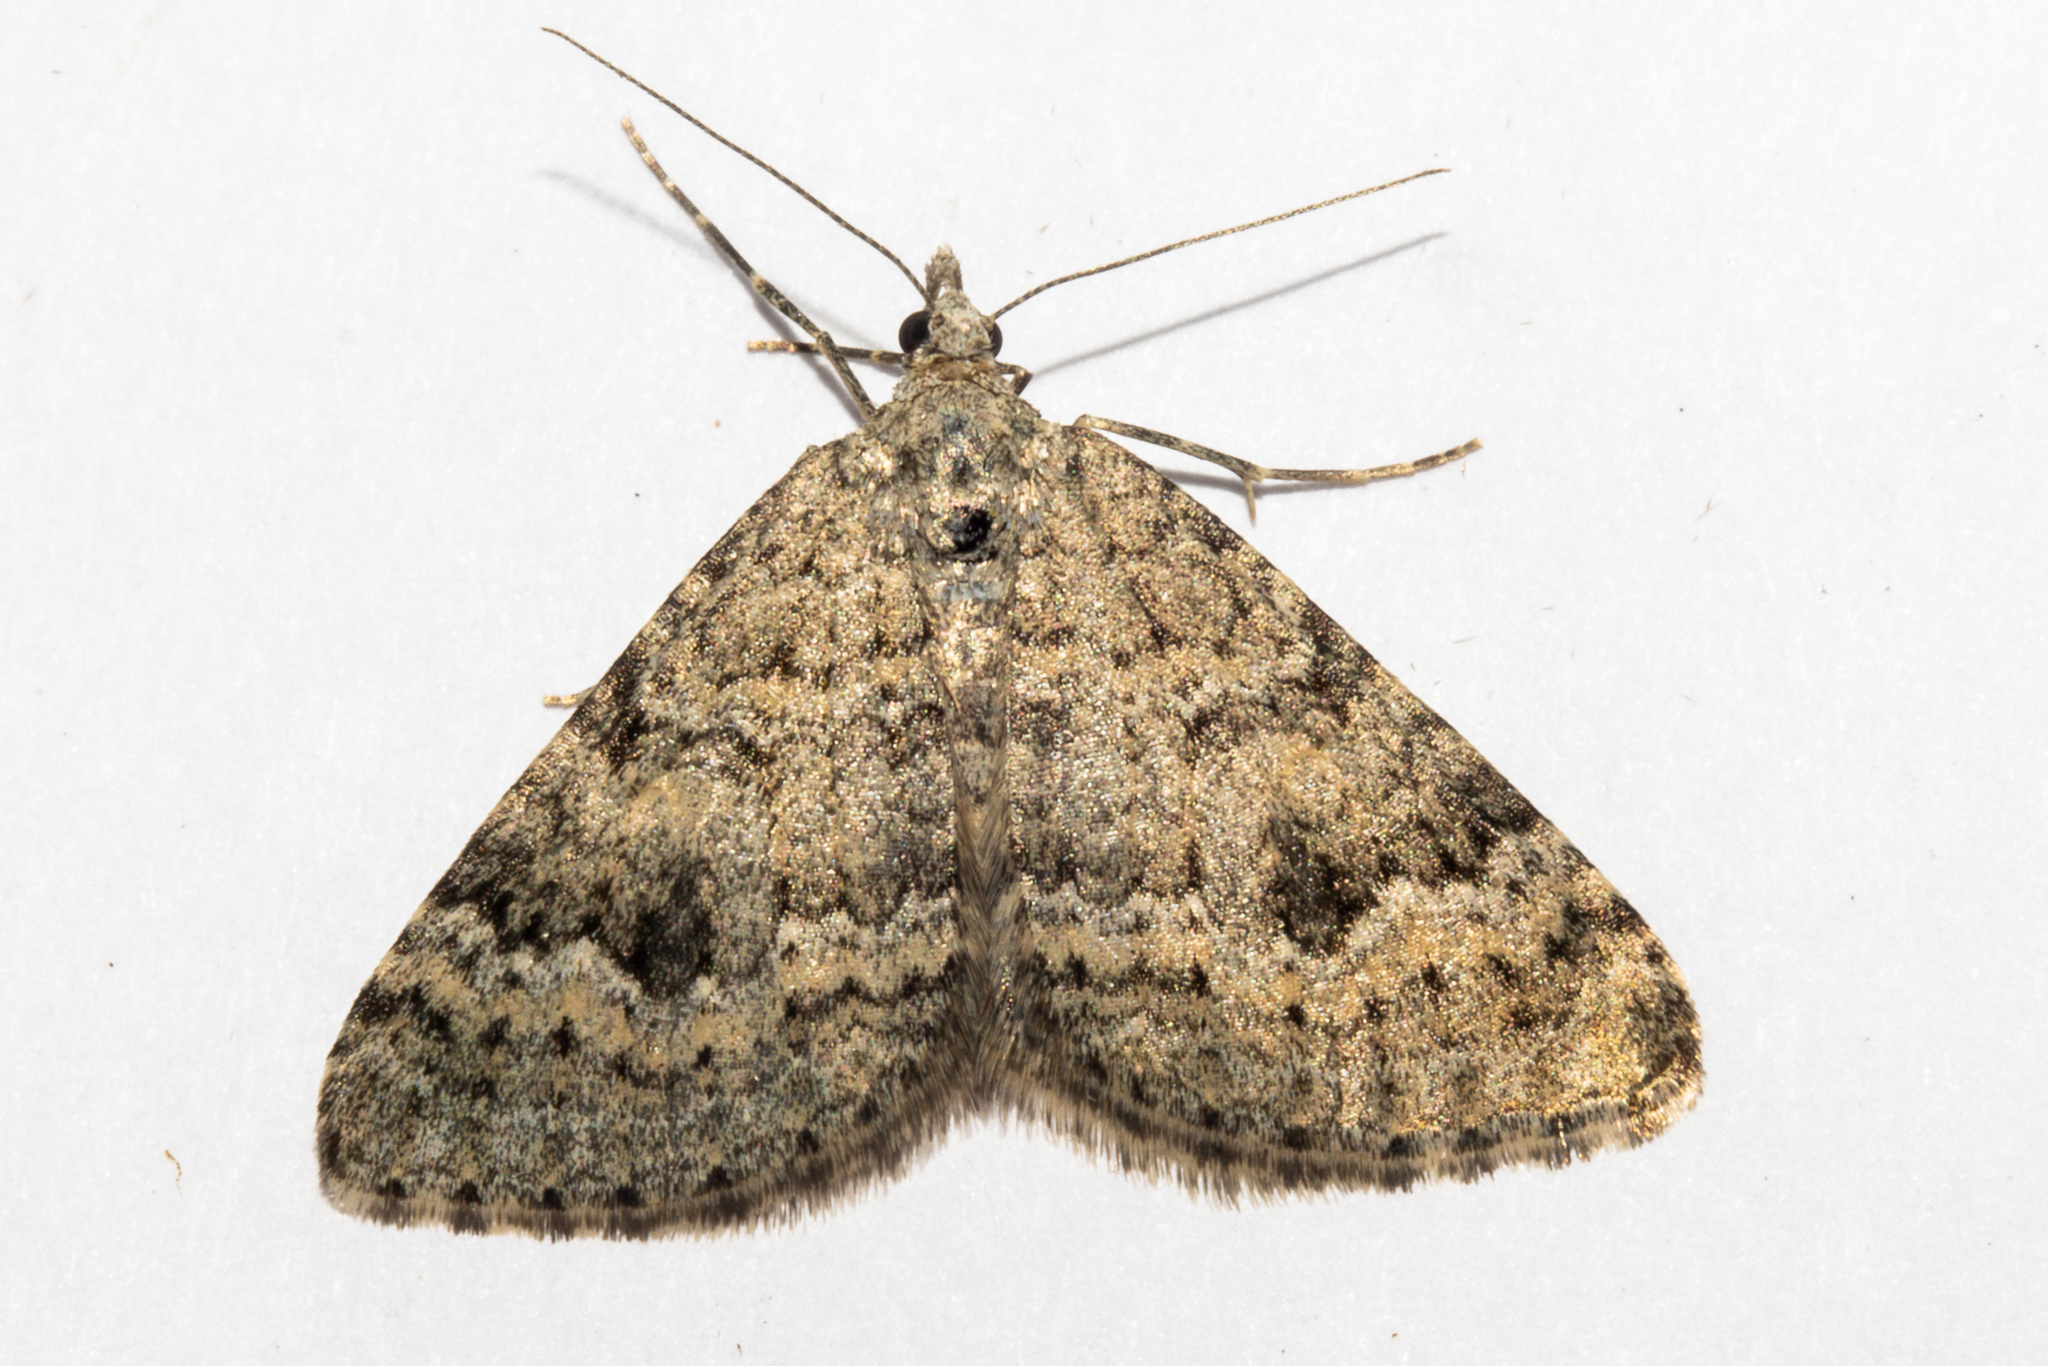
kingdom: Animalia
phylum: Arthropoda
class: Insecta
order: Lepidoptera
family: Geometridae
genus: Helastia
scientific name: Helastia corcularia
